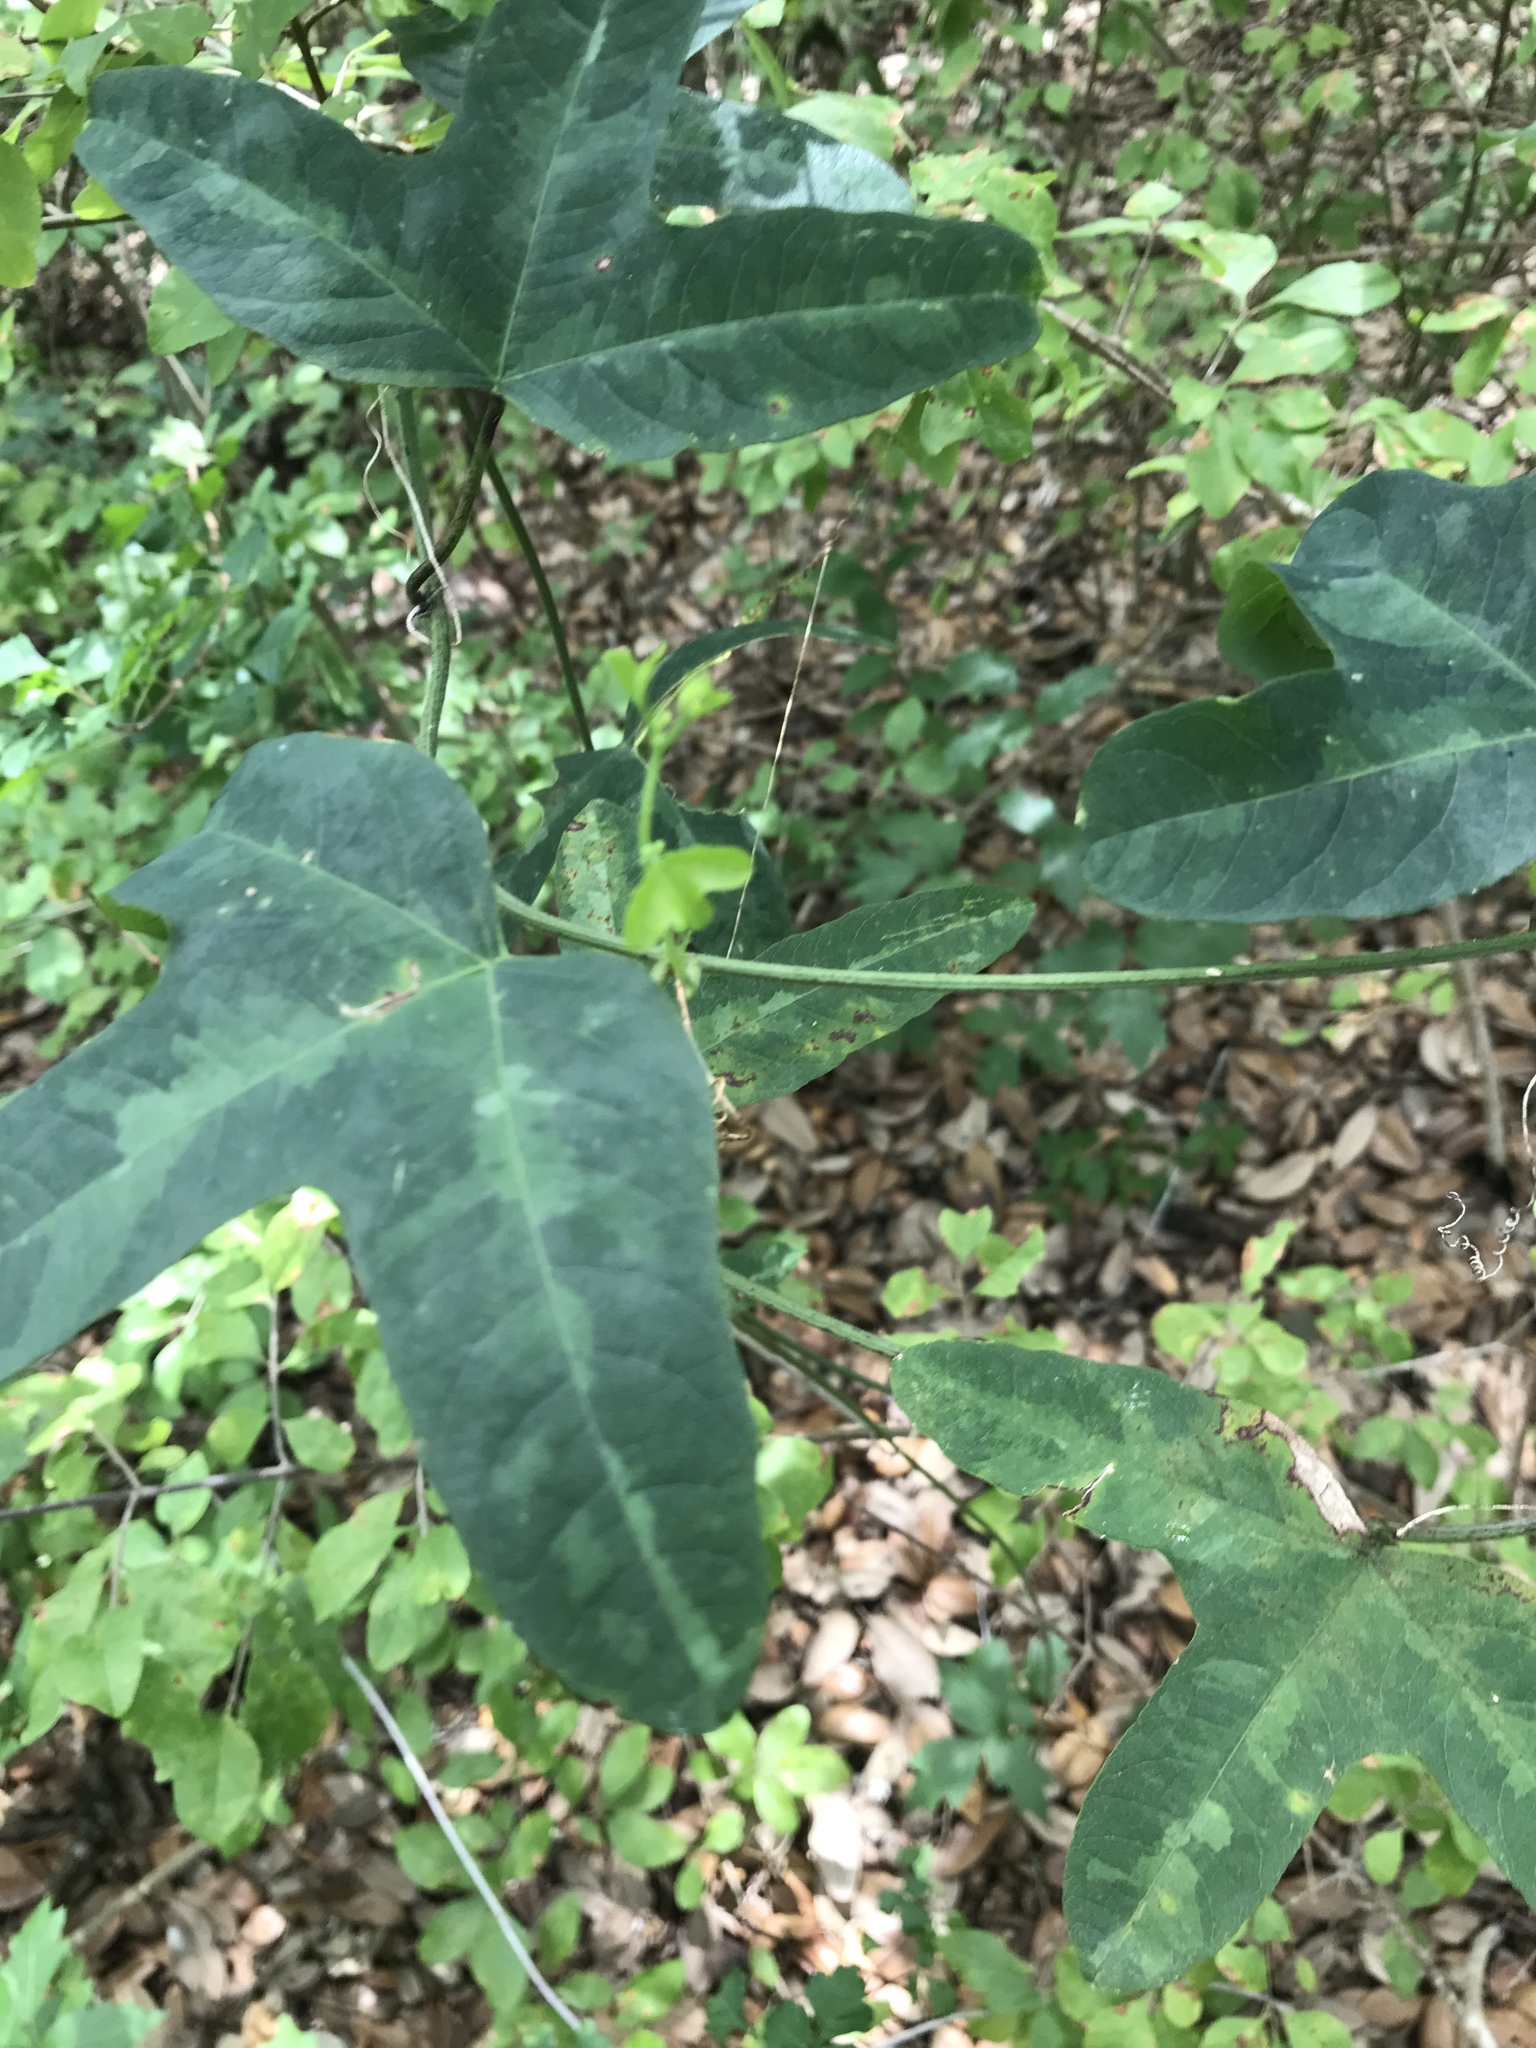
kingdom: Plantae
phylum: Tracheophyta
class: Magnoliopsida
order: Malpighiales
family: Passifloraceae
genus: Passiflora
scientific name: Passiflora lutea
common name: Yellow passionflower
